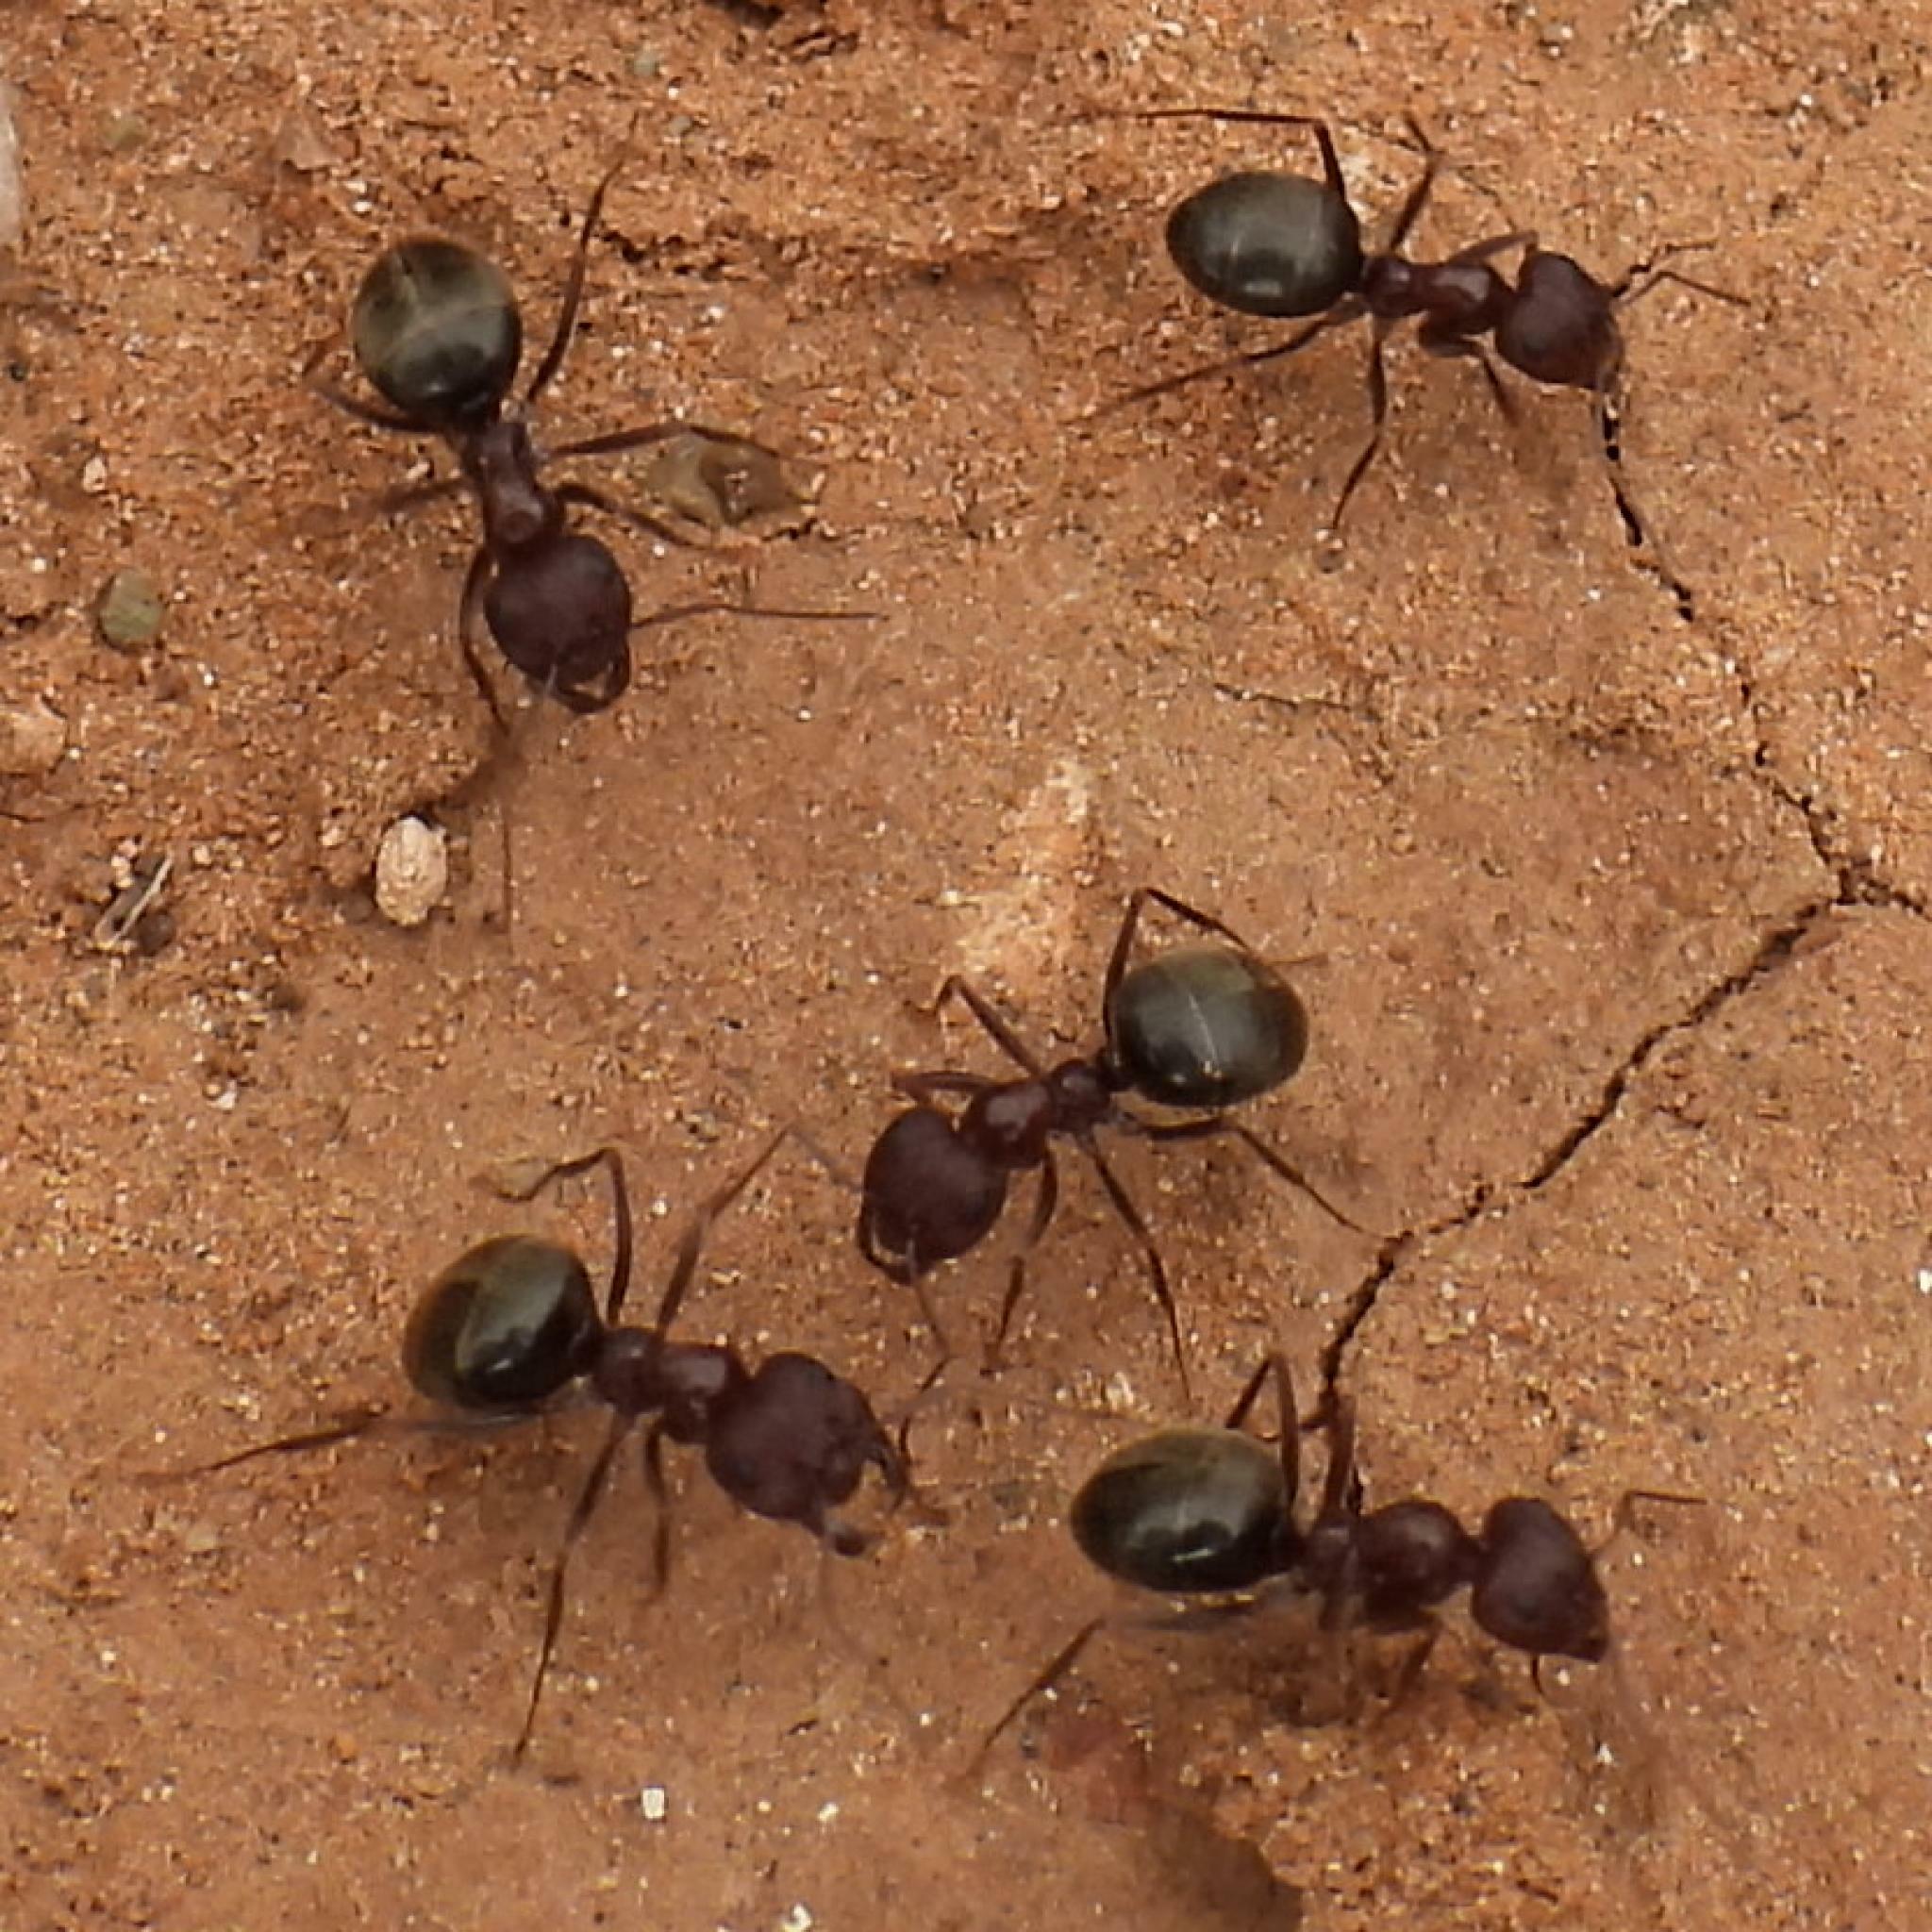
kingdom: Animalia
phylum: Arthropoda
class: Insecta
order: Hymenoptera
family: Formicidae
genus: Anoplolepis
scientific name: Anoplolepis steingroeveri
